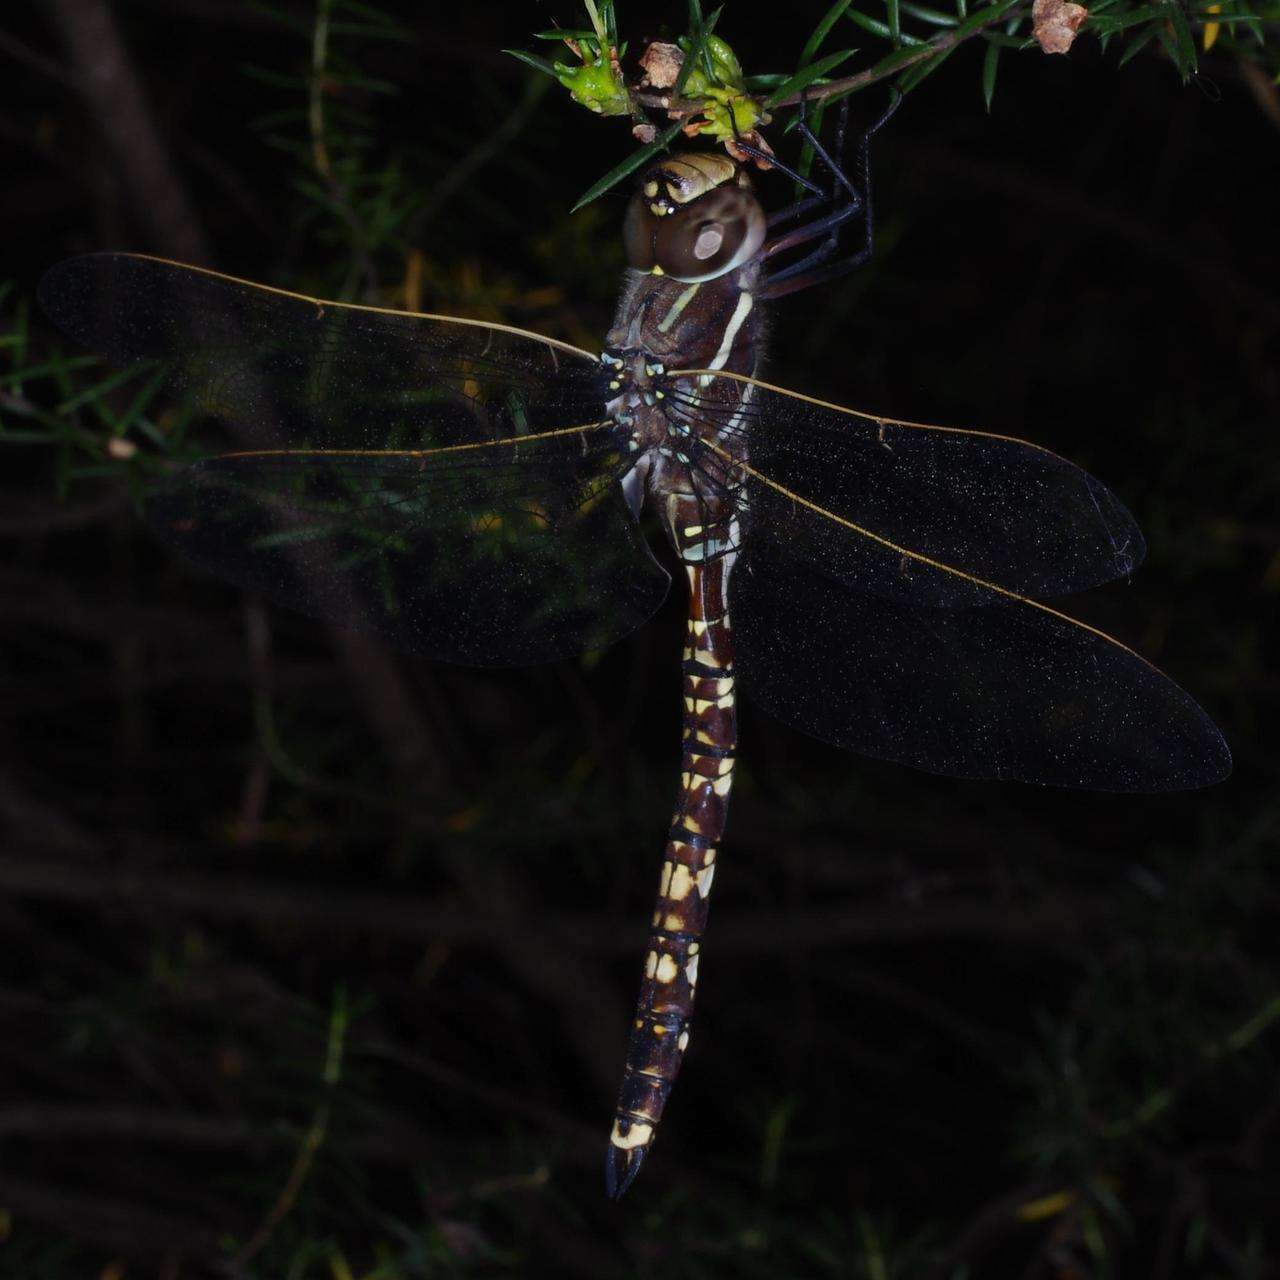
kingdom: Animalia
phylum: Arthropoda
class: Insecta
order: Odonata
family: Aeshnidae
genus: Aeshna
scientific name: Aeshna brevistyla
